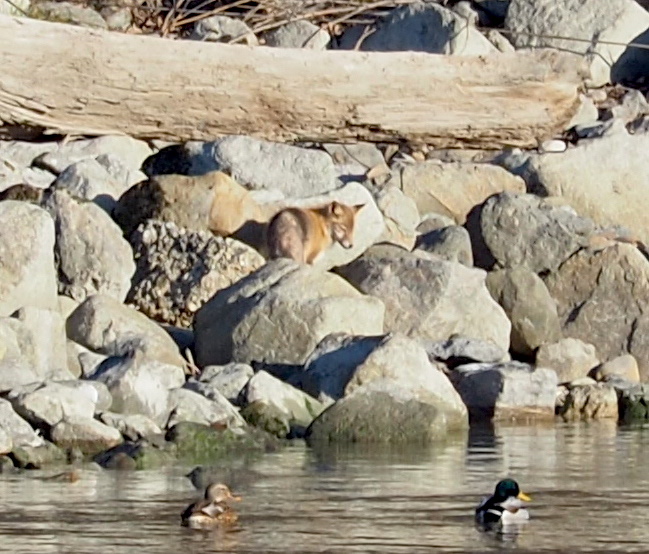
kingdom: Animalia
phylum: Chordata
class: Mammalia
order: Carnivora
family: Canidae
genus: Vulpes
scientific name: Vulpes vulpes
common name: Red fox
